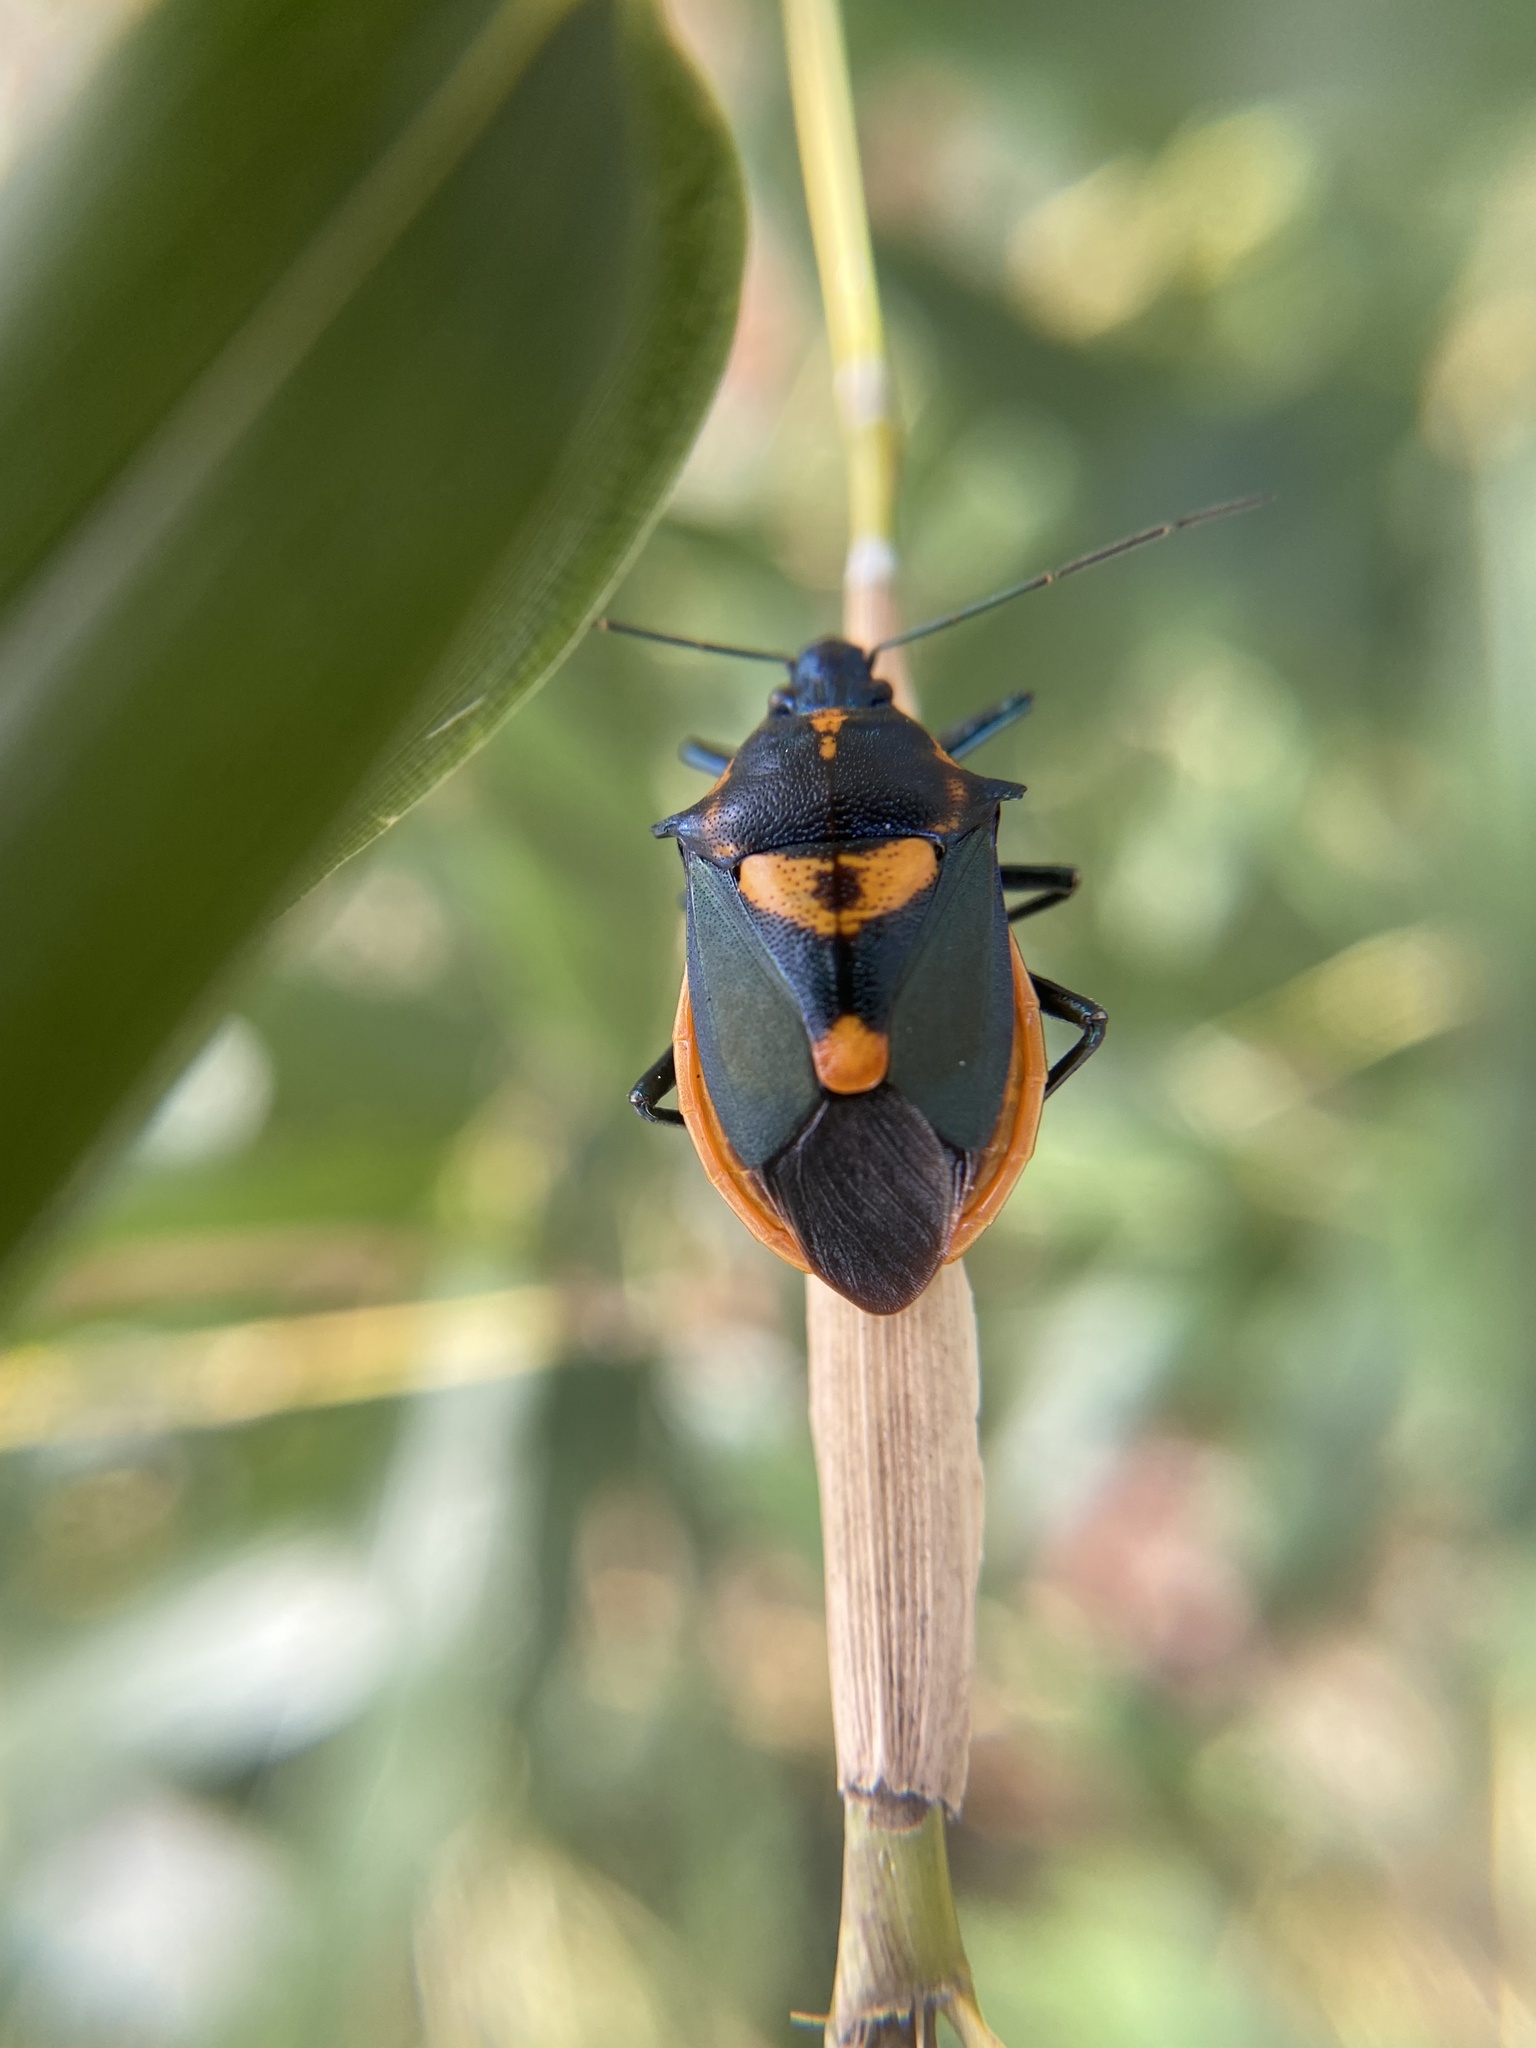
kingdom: Animalia
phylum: Arthropoda
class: Insecta
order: Hemiptera
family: Pentatomidae
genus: Euthyrhynchus
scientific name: Euthyrhynchus floridanus
